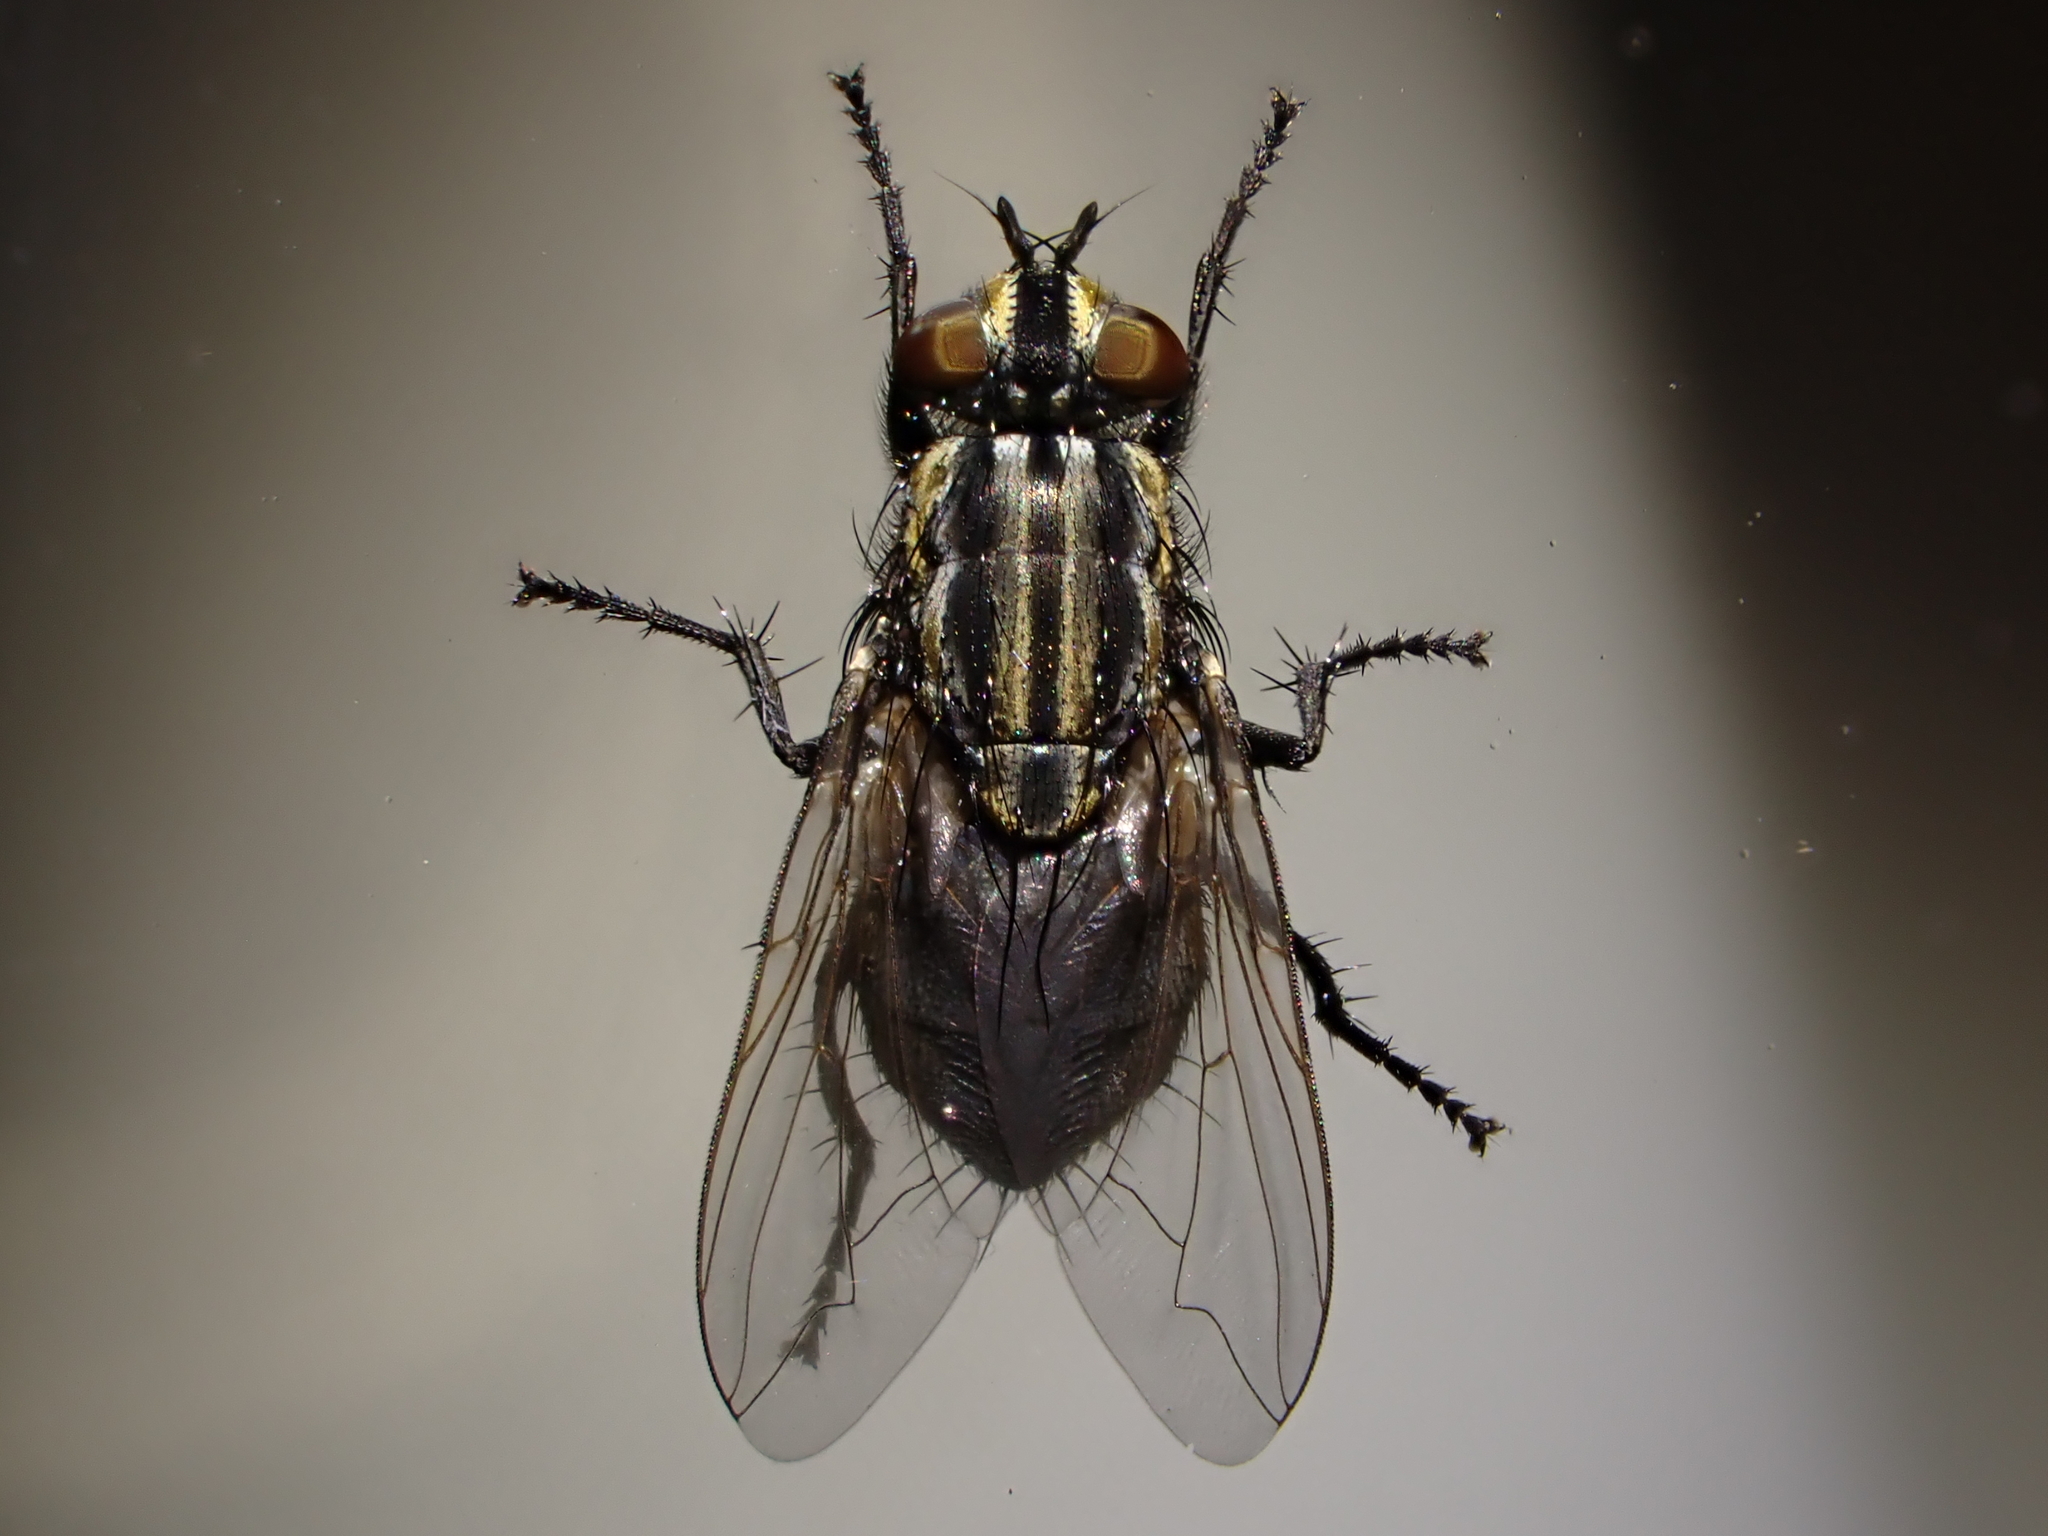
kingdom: Animalia
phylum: Arthropoda
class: Insecta
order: Diptera
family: Sarcophagidae
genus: Oxysarcodexia
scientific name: Oxysarcodexia varia
